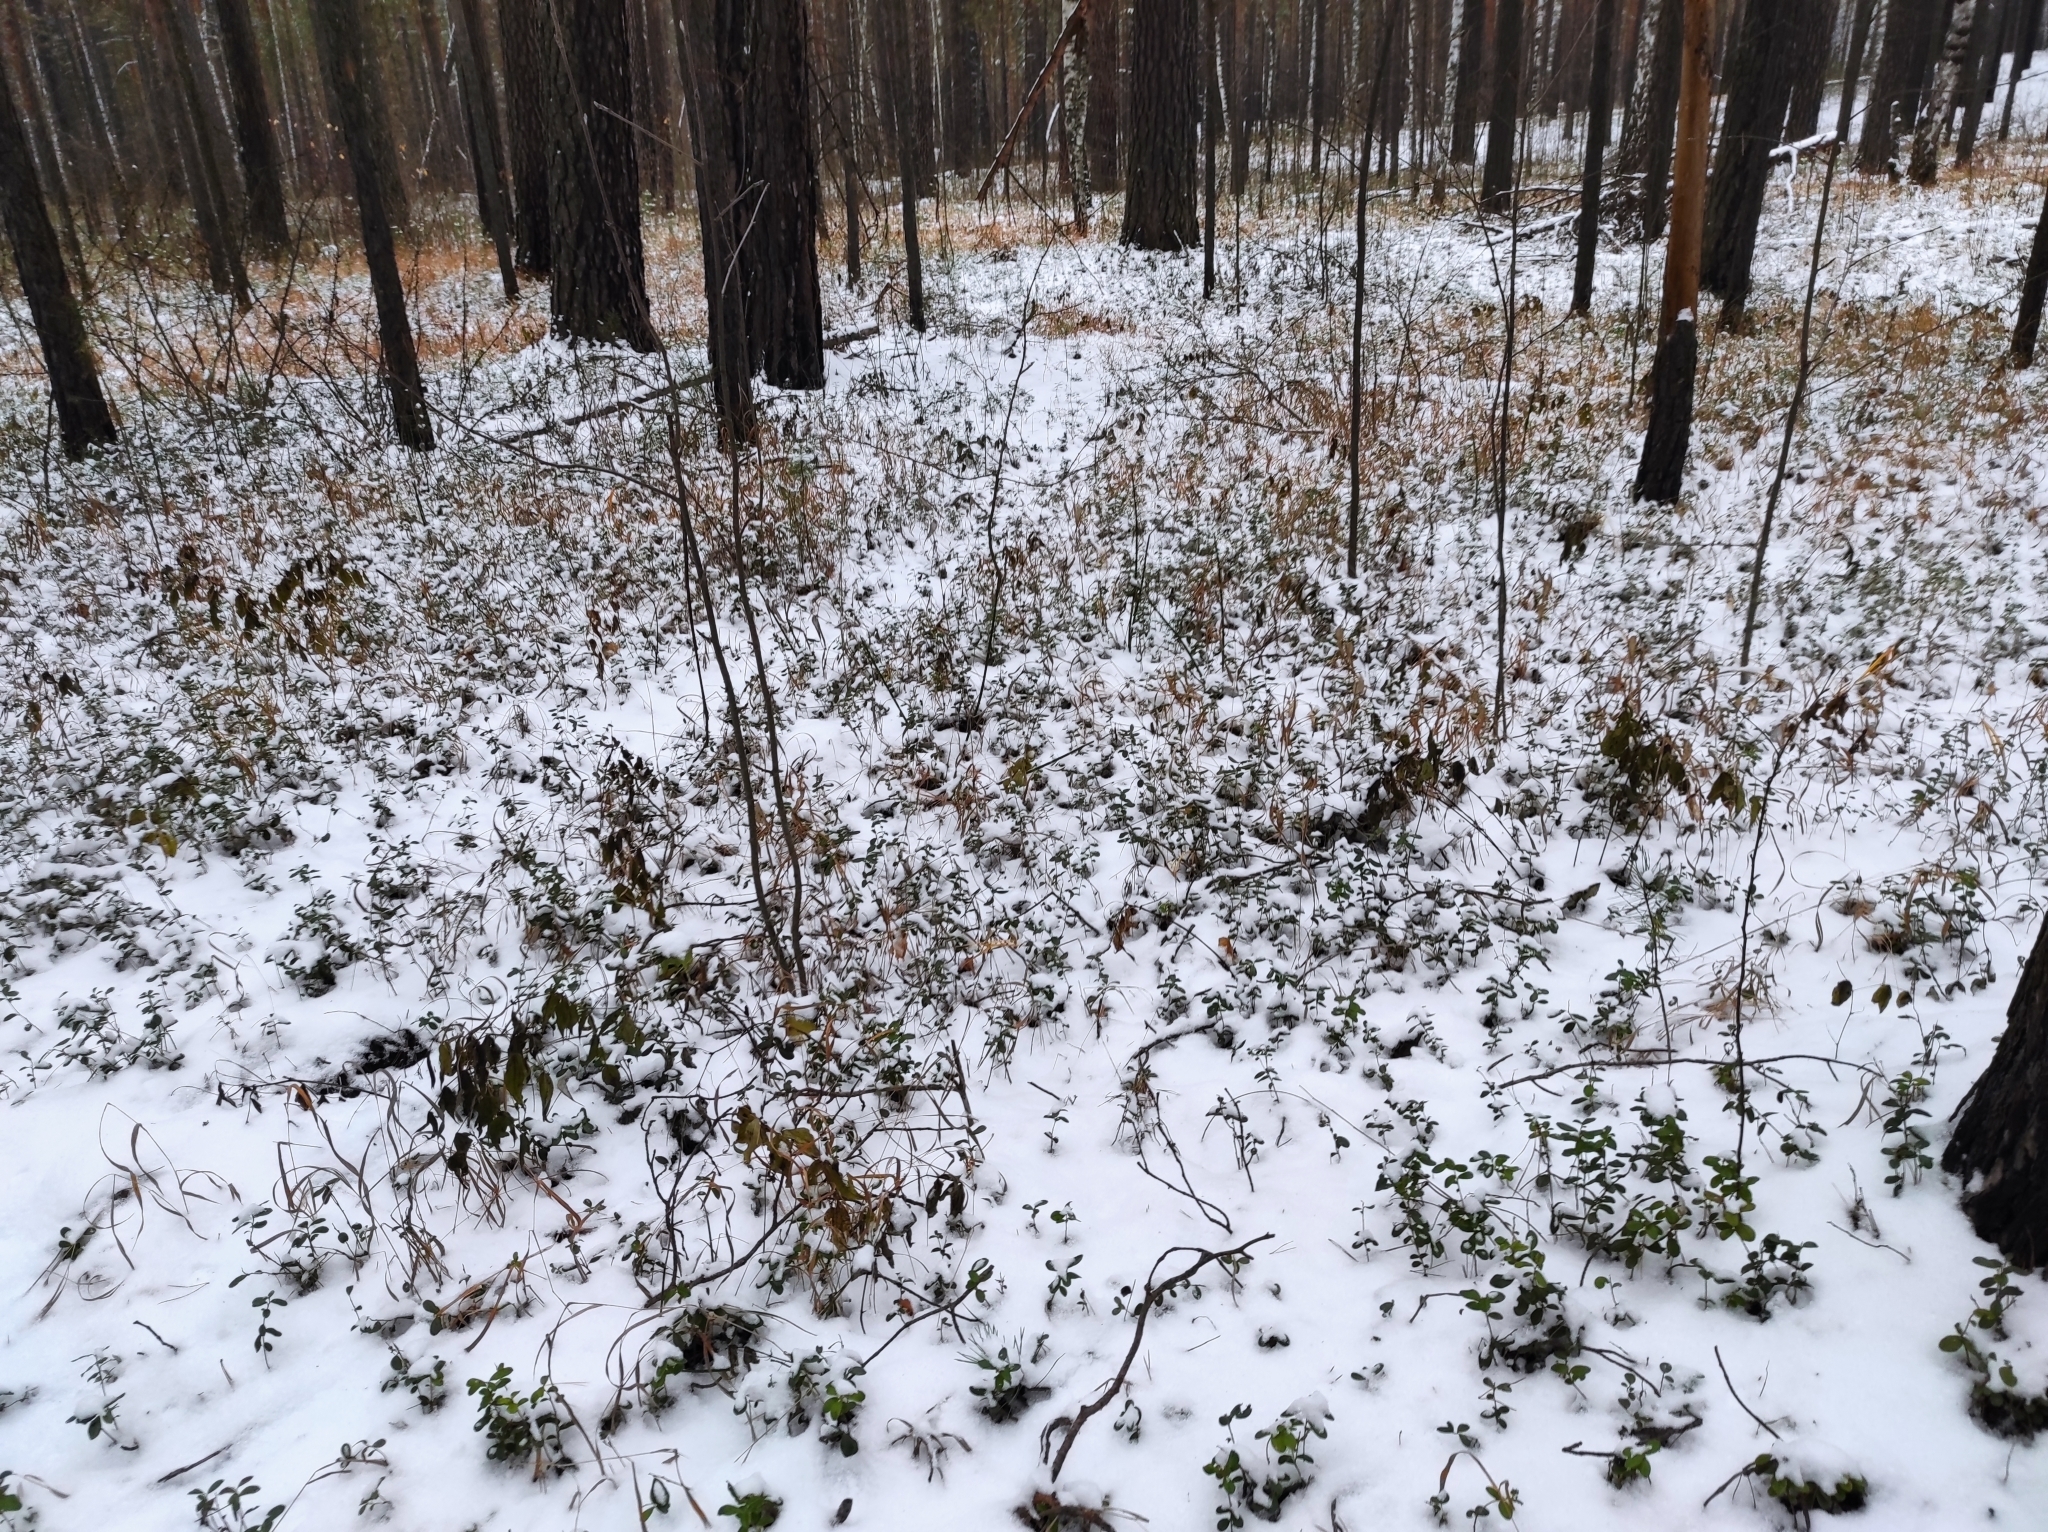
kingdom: Plantae
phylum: Tracheophyta
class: Magnoliopsida
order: Ericales
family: Ericaceae
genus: Vaccinium
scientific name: Vaccinium vitis-idaea
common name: Cowberry
